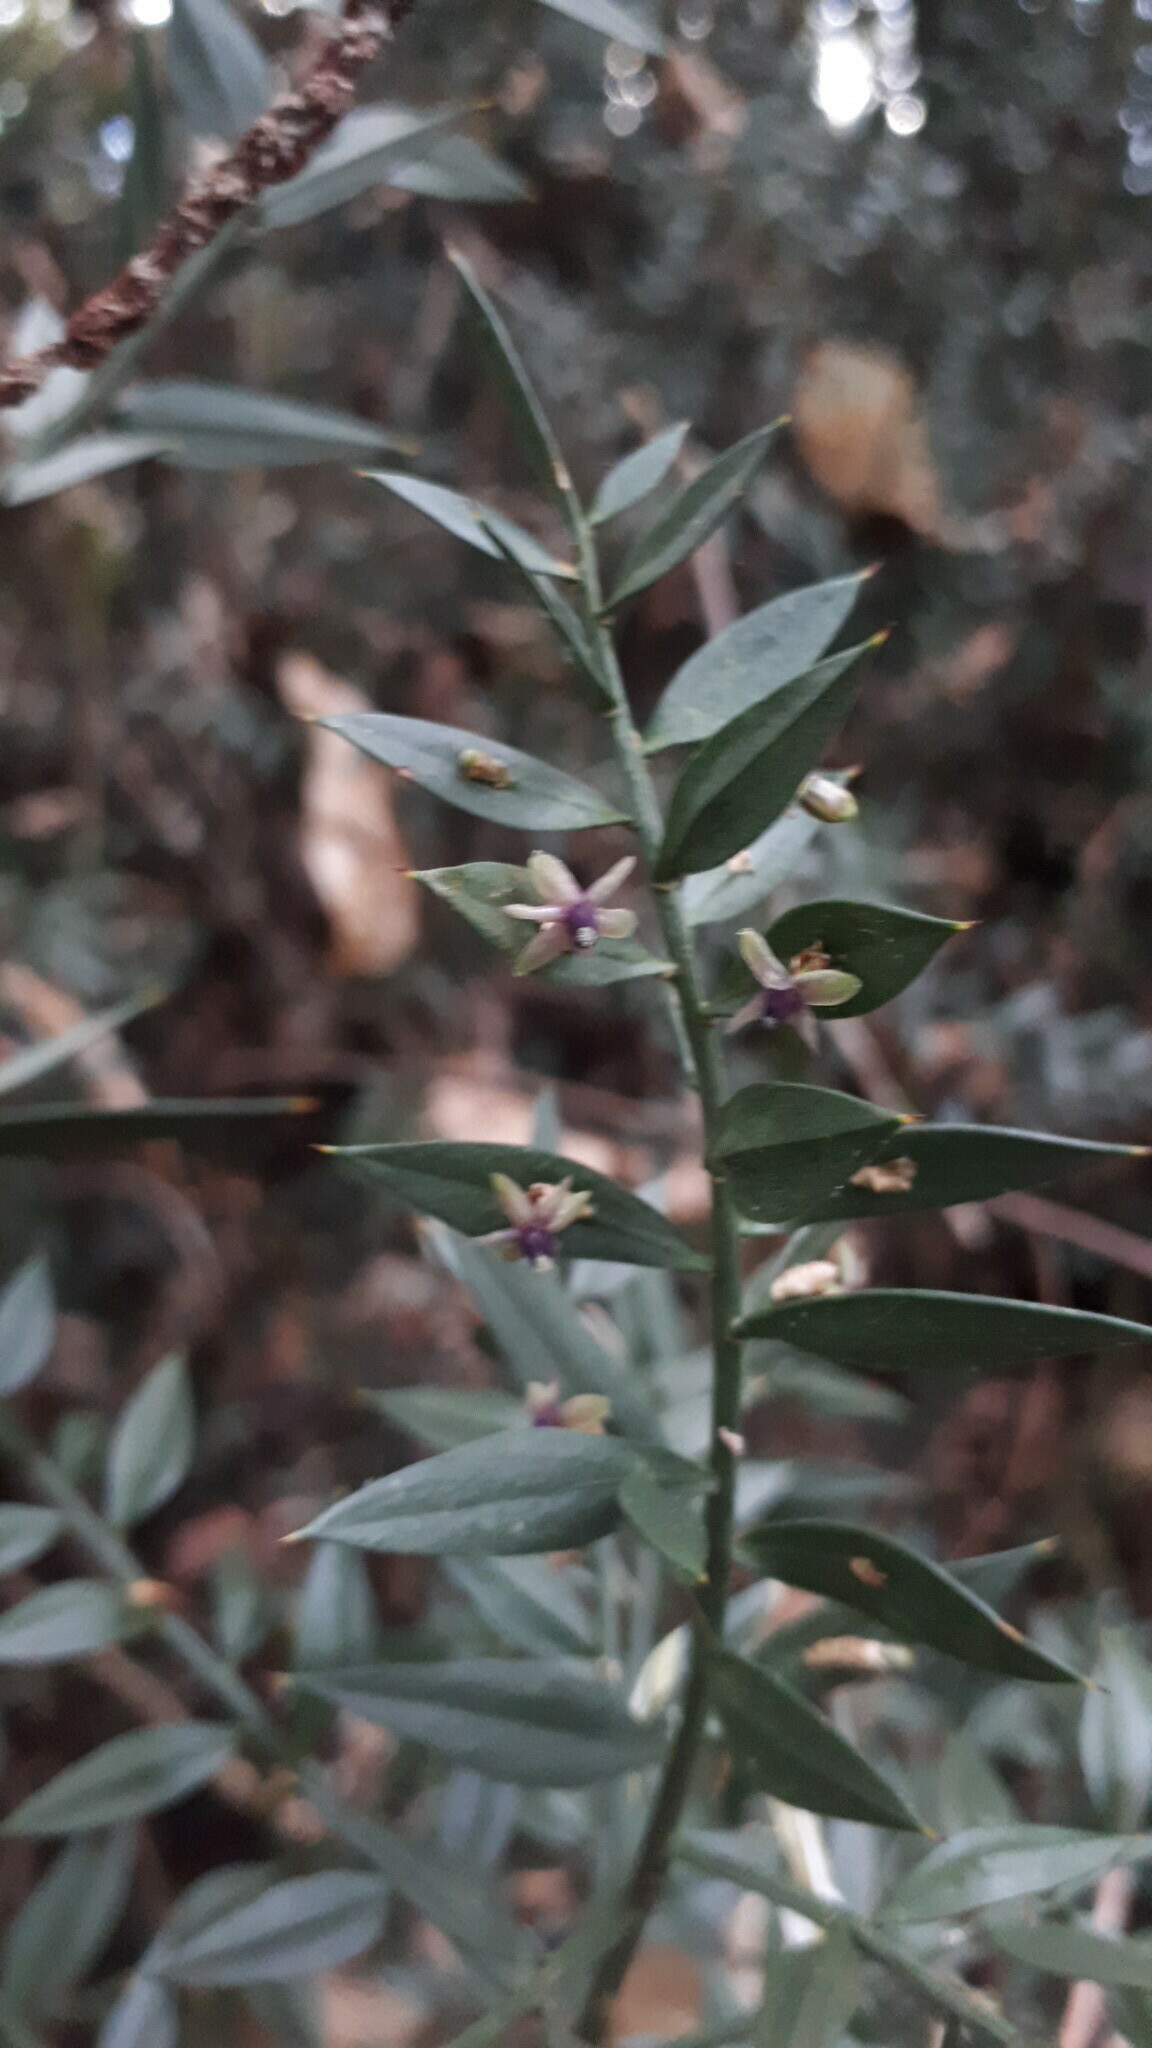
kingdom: Plantae
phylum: Tracheophyta
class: Liliopsida
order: Asparagales
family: Asparagaceae
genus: Ruscus
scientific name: Ruscus aculeatus
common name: Butcher's-broom
